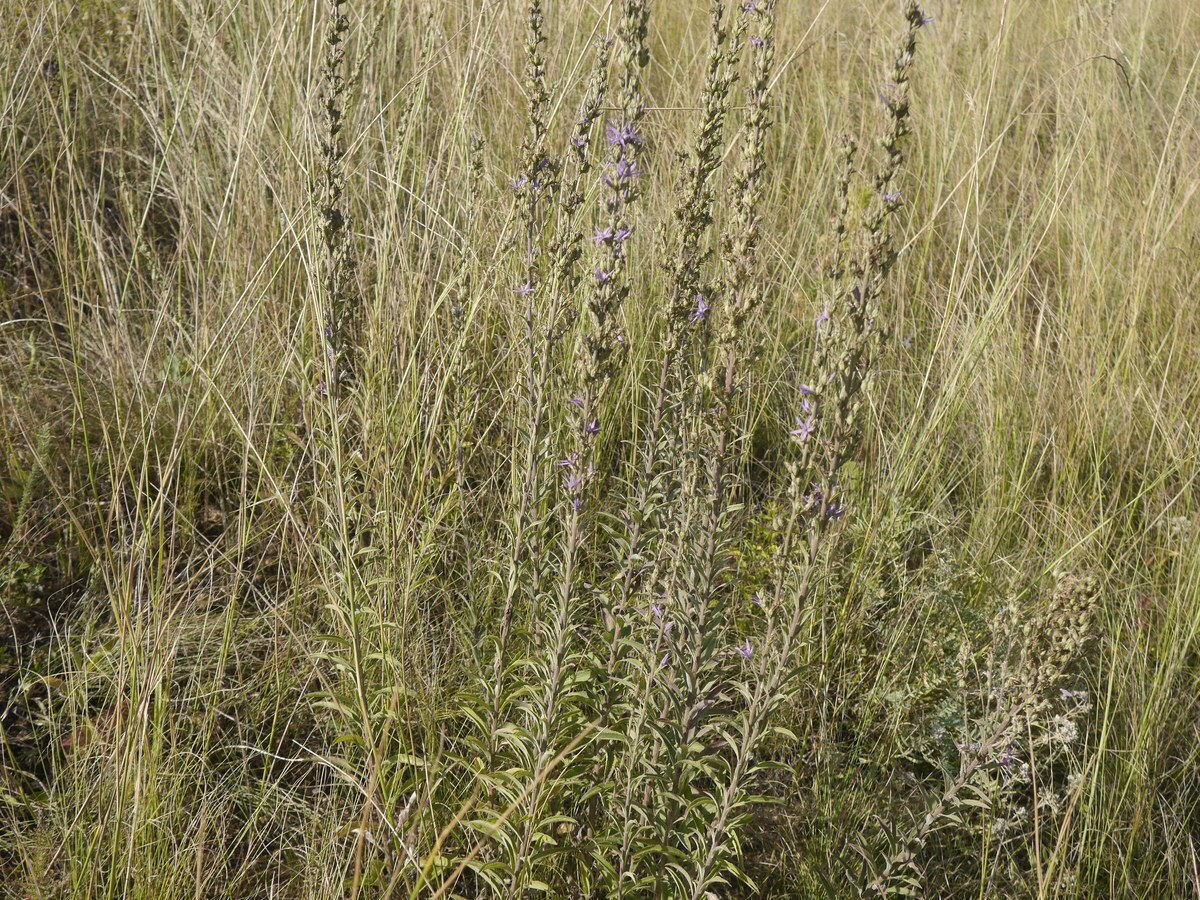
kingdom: Plantae
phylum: Tracheophyta
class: Magnoliopsida
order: Asterales
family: Campanulaceae
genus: Asyneuma
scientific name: Asyneuma canescens
